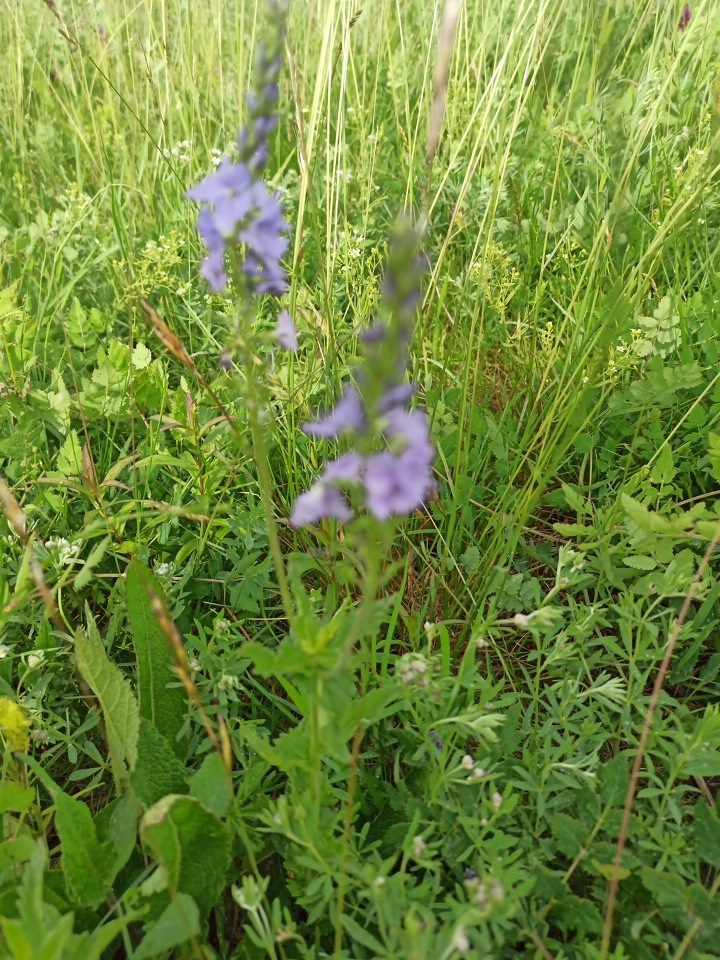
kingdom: Plantae
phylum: Tracheophyta
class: Magnoliopsida
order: Lamiales
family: Plantaginaceae
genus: Veronica
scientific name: Veronica teucrium
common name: Large speedwell
